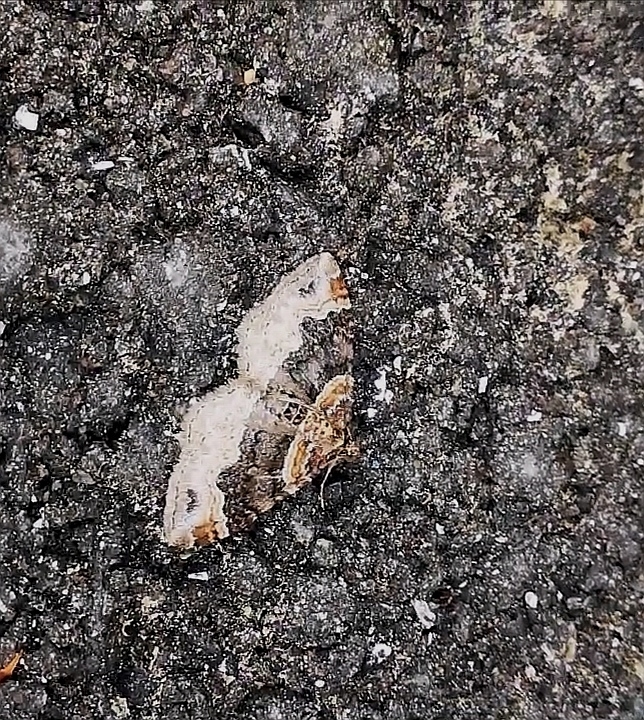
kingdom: Animalia
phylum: Arthropoda
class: Insecta
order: Lepidoptera
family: Geometridae
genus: Xanthorhoe
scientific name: Xanthorhoe ferrugata
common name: Dark-barred twin-spot carpet
